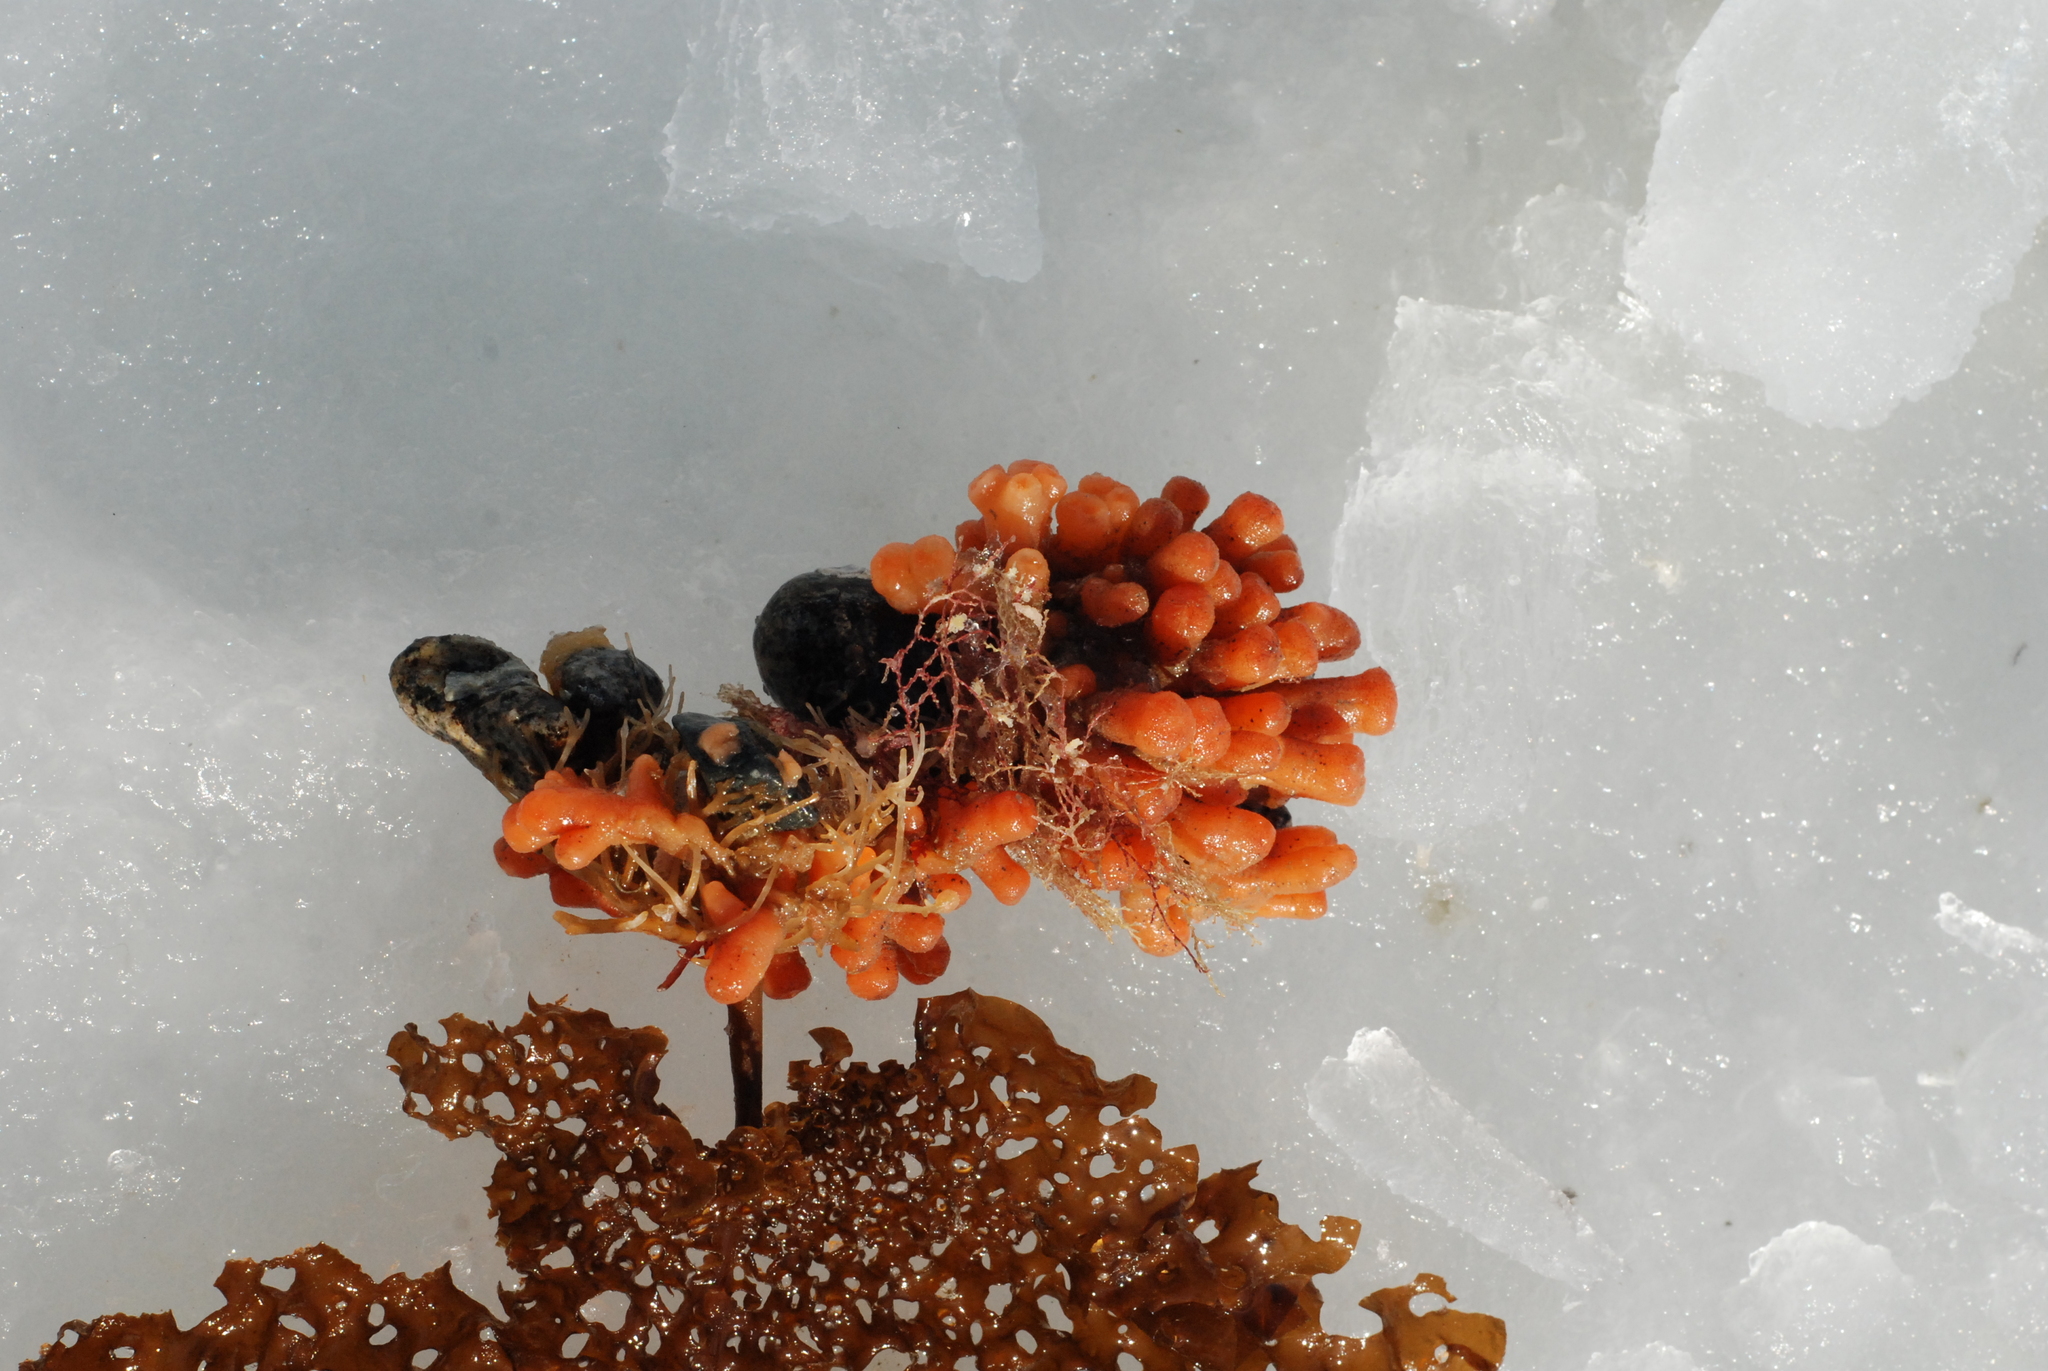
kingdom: Animalia
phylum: Chordata
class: Ascidiacea
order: Aplousobranchia
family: Polyclinidae
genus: Synoicum
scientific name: Synoicum turgens
